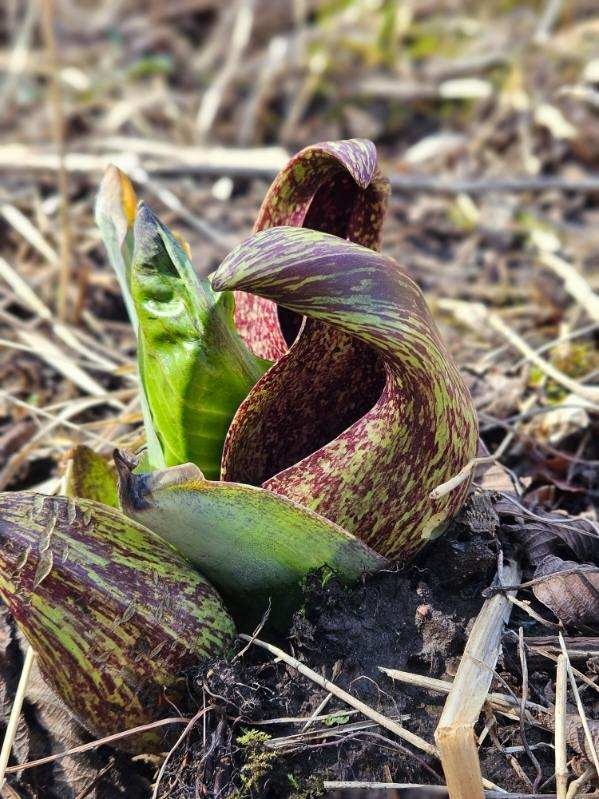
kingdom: Plantae
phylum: Tracheophyta
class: Liliopsida
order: Alismatales
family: Araceae
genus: Symplocarpus
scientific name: Symplocarpus foetidus
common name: Eastern skunk cabbage
